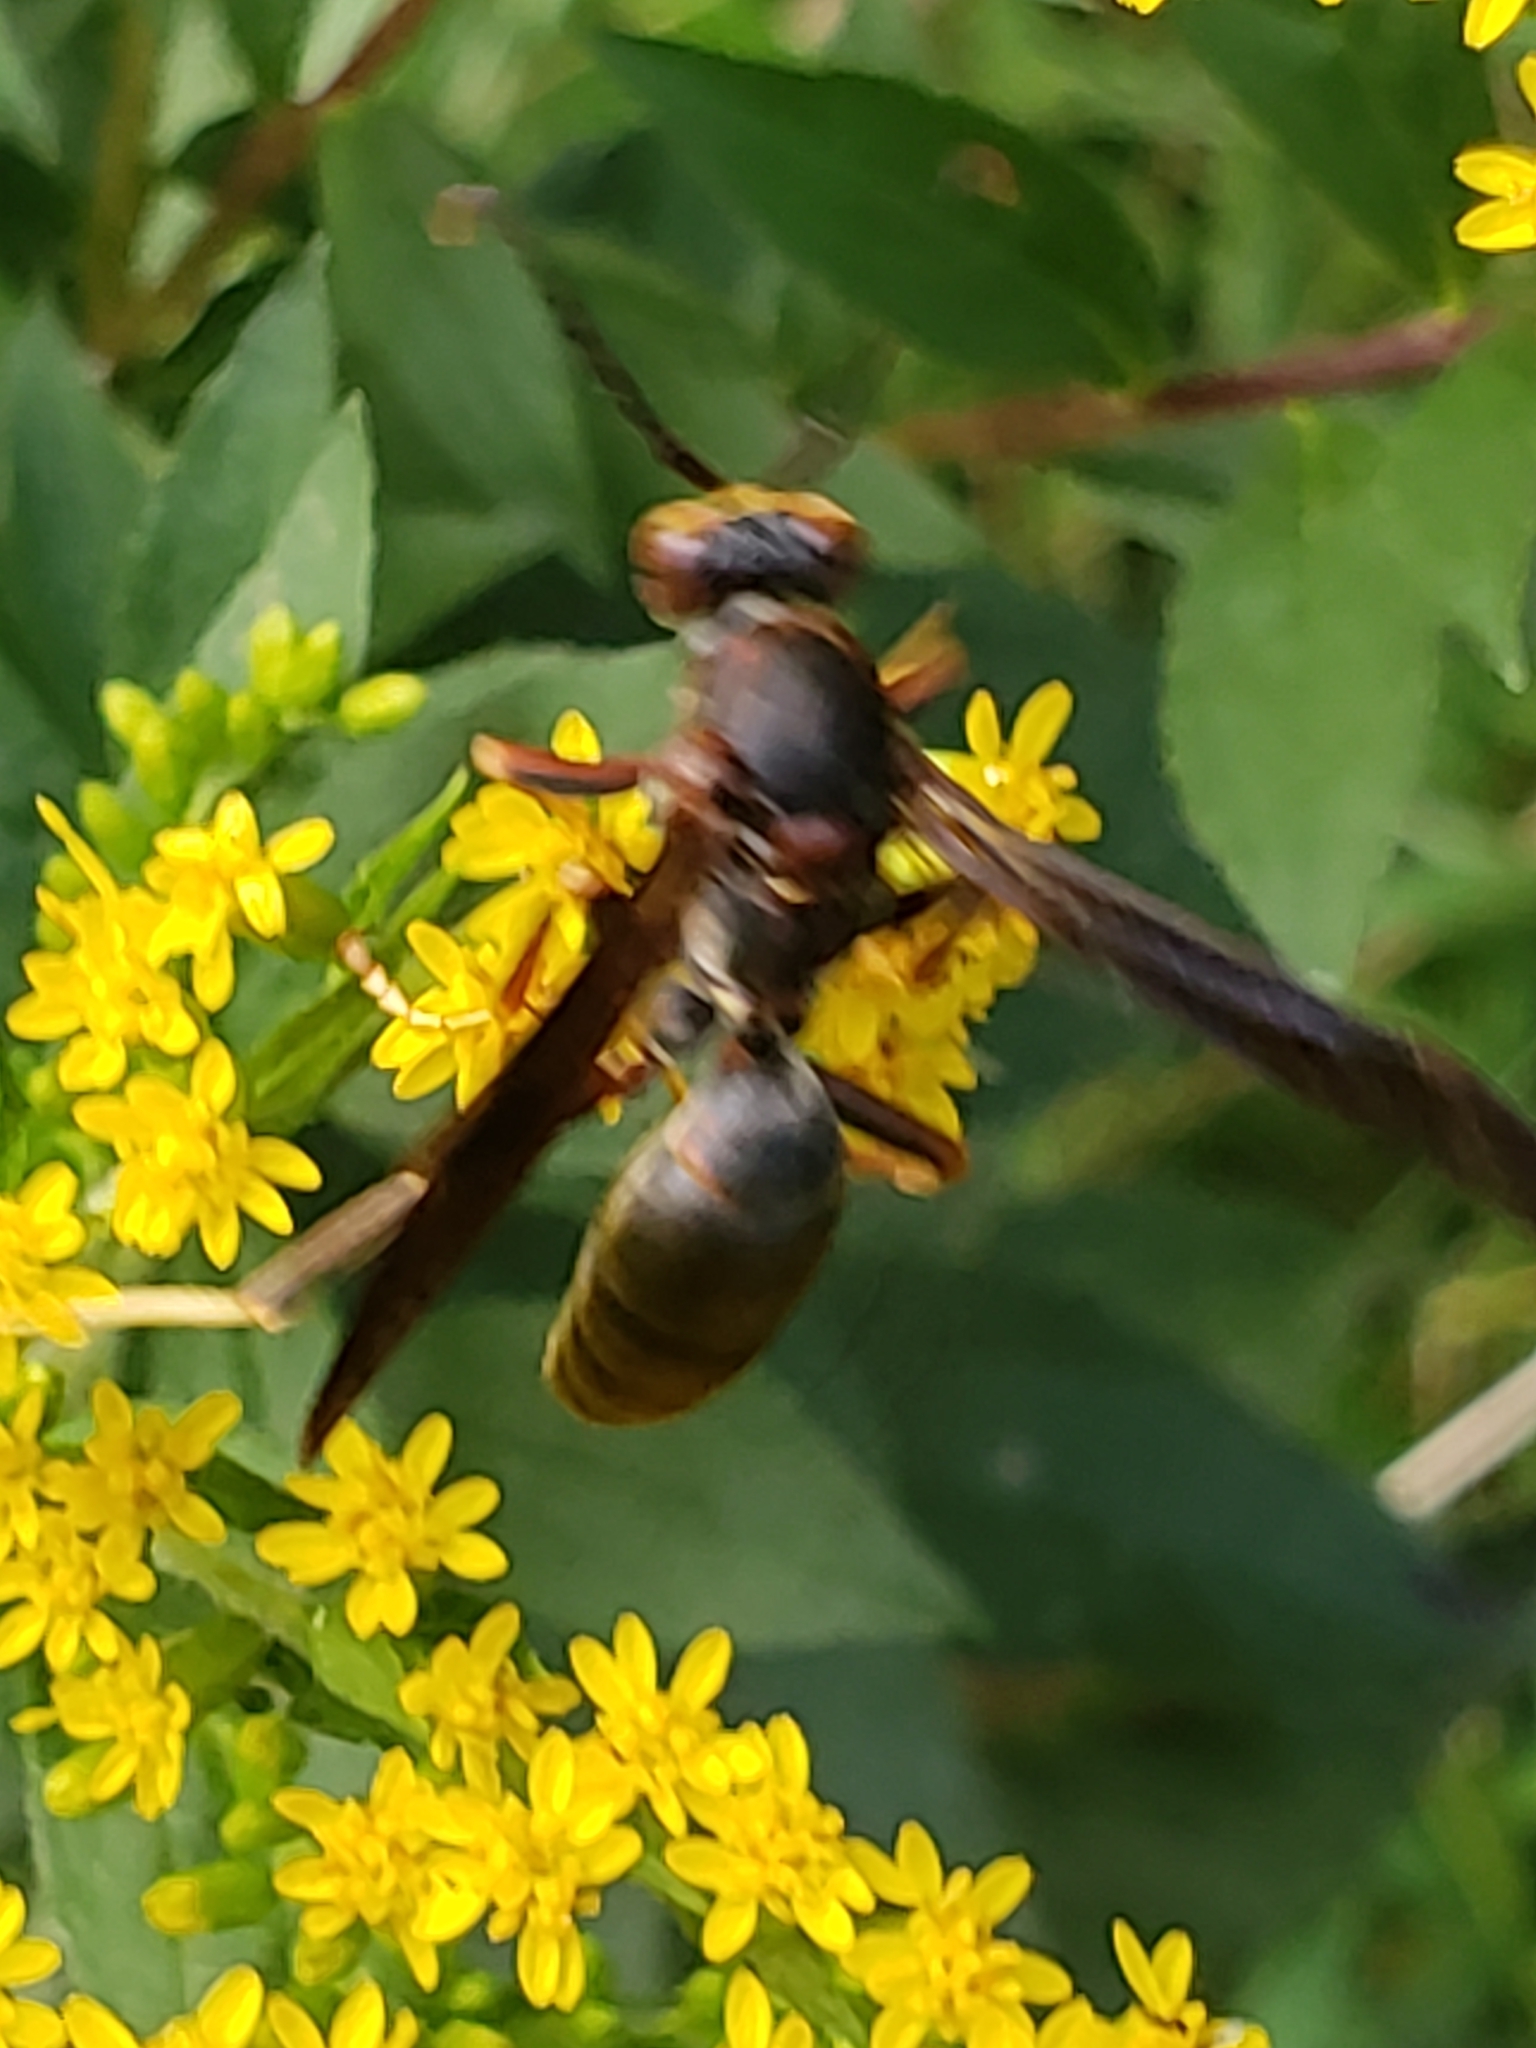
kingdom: Animalia
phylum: Arthropoda
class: Insecta
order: Hymenoptera
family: Eumenidae
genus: Polistes
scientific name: Polistes metricus
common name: Metric paper wasp
